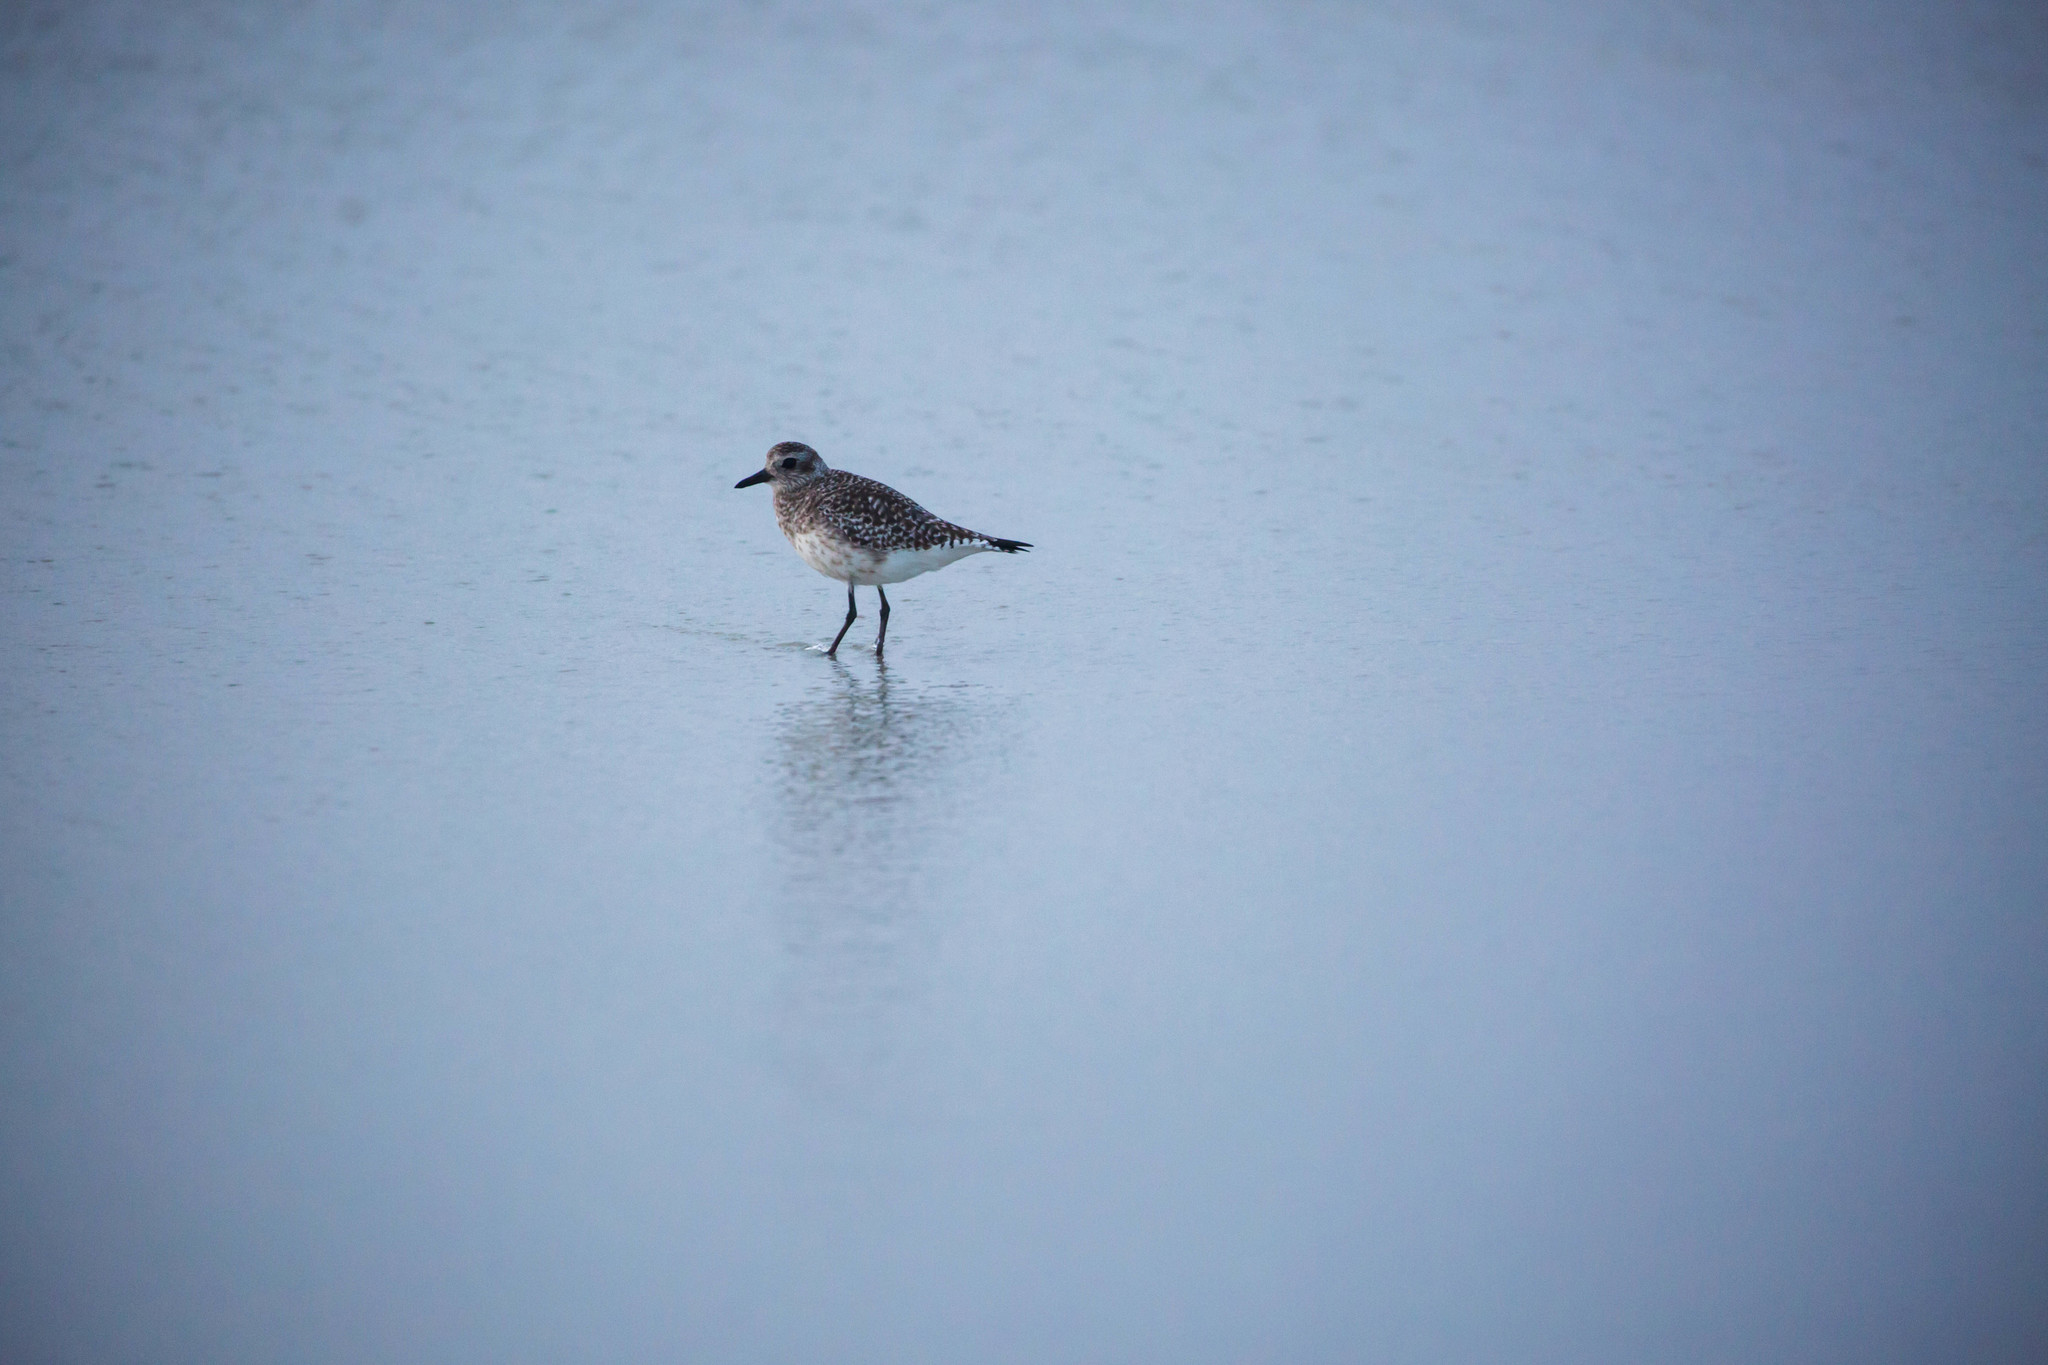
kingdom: Animalia
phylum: Chordata
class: Aves
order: Charadriiformes
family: Charadriidae
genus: Pluvialis
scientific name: Pluvialis squatarola
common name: Grey plover
